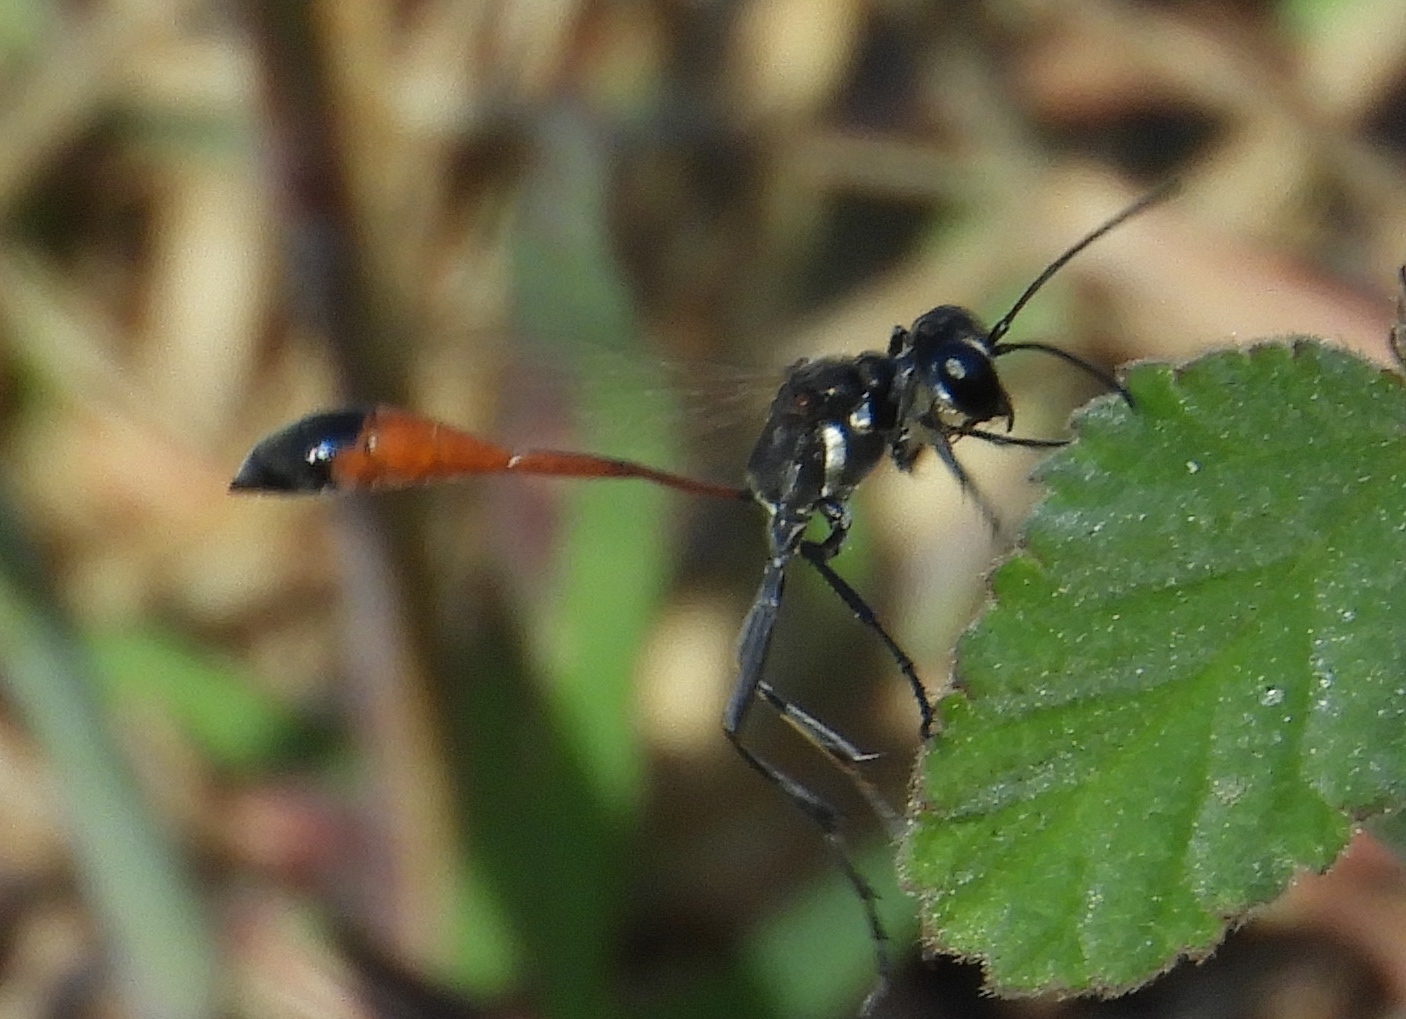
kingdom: Animalia
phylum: Arthropoda
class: Insecta
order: Hymenoptera
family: Sphecidae
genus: Ammophila
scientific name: Ammophila
